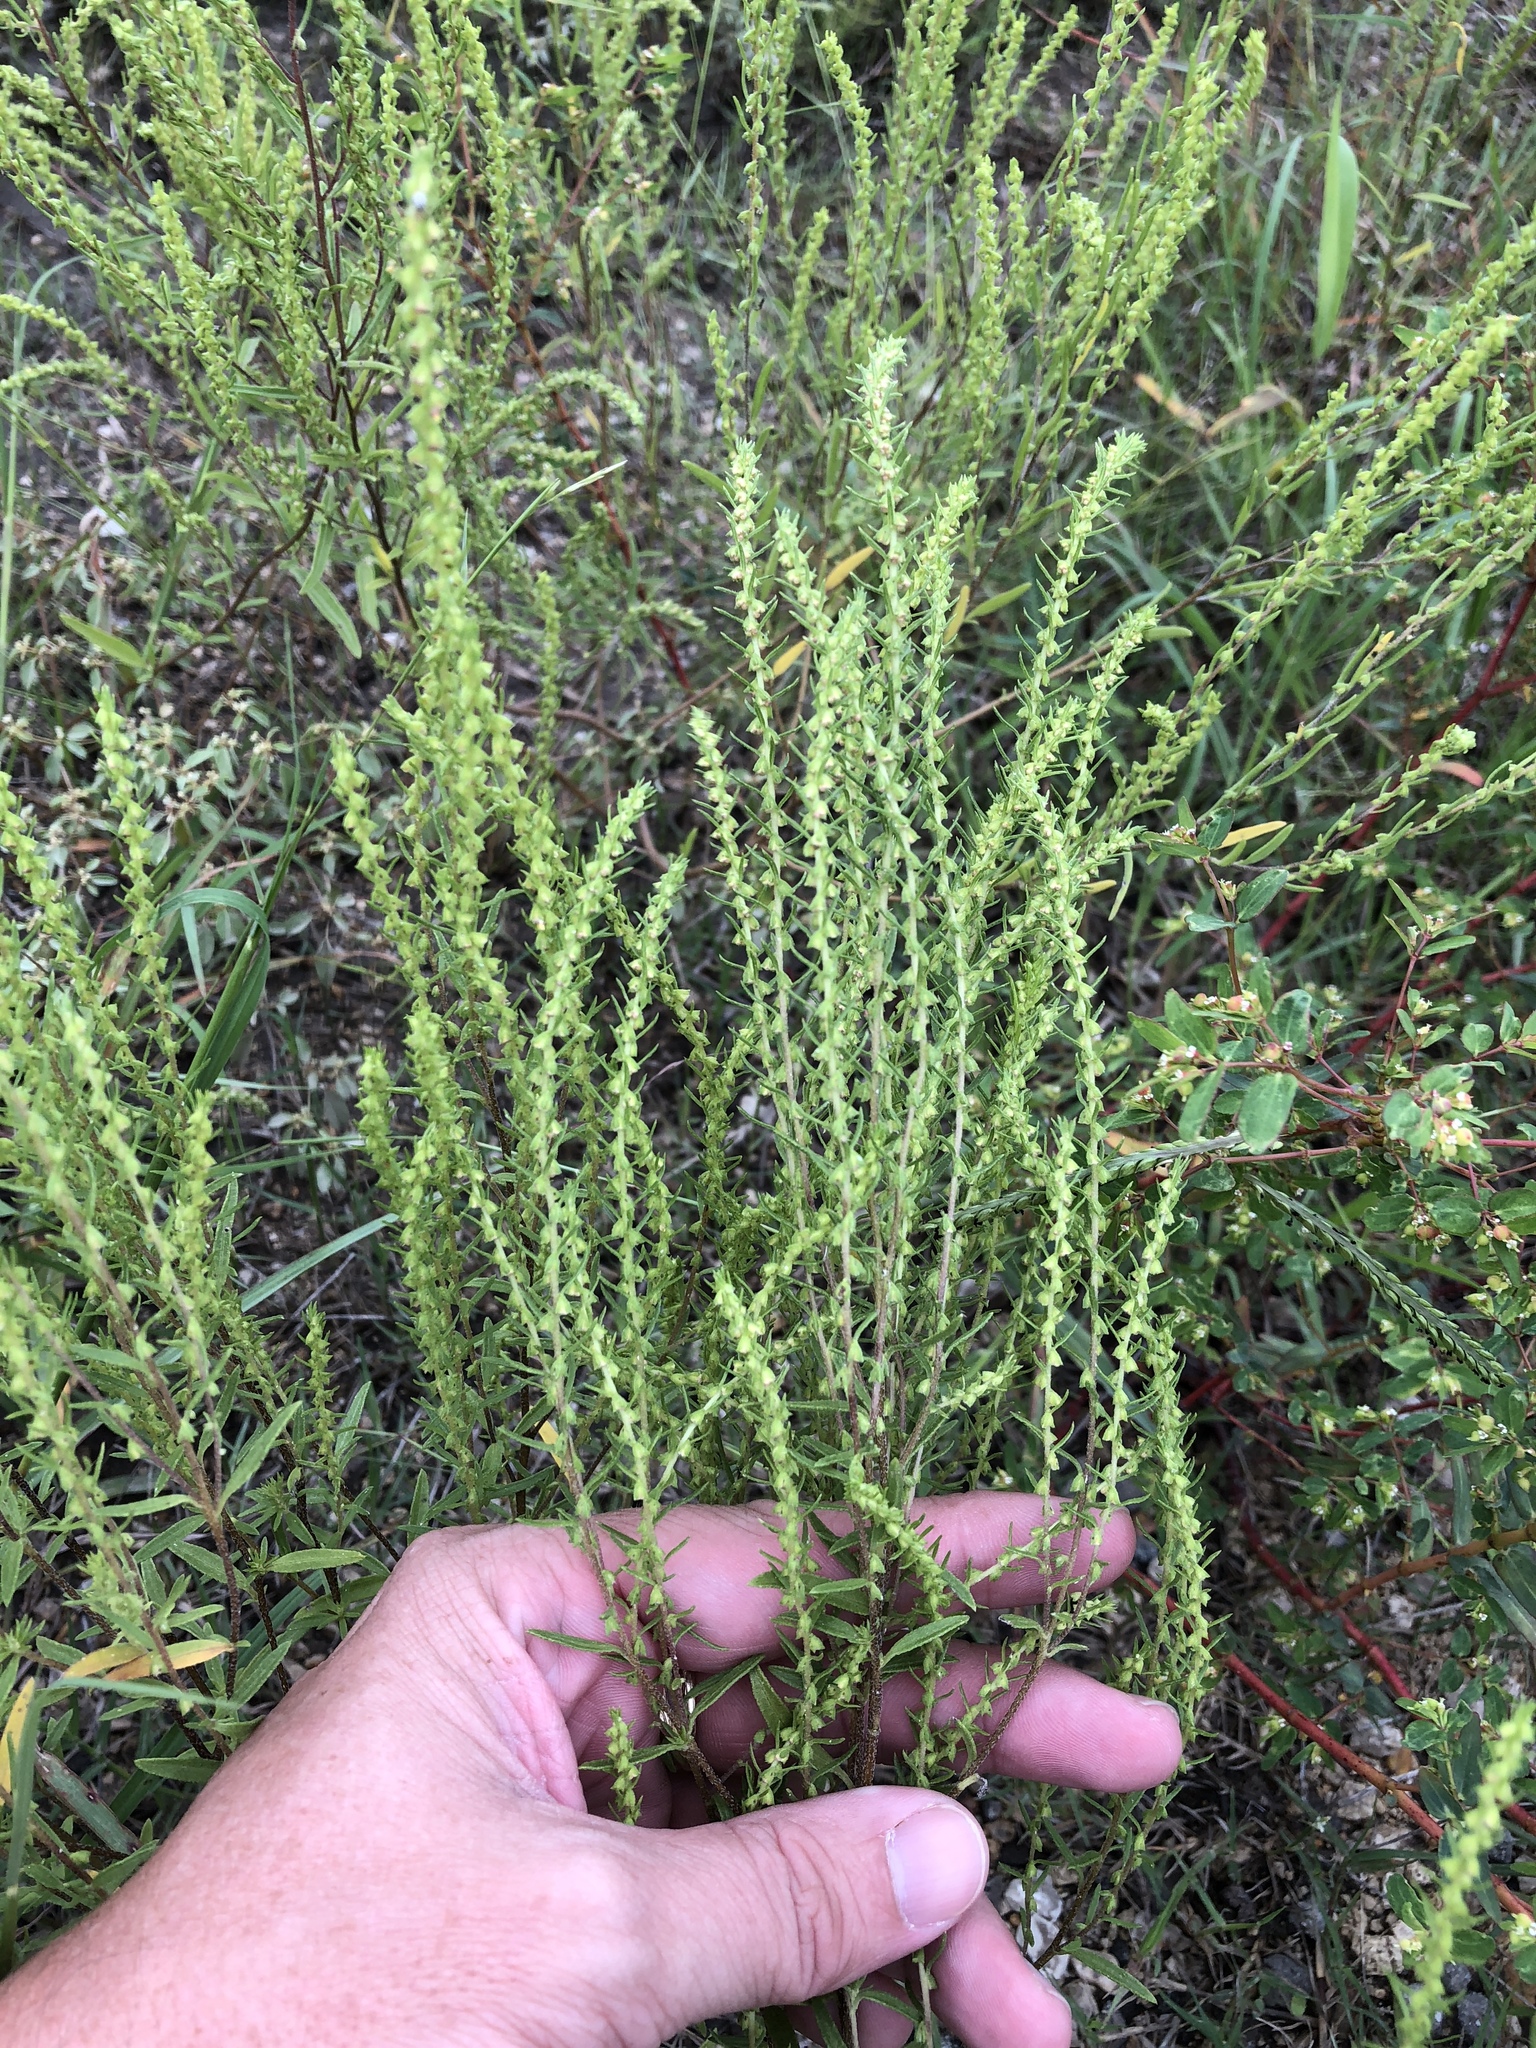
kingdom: Plantae
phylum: Tracheophyta
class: Magnoliopsida
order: Asterales
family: Asteraceae
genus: Iva
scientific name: Iva asperifolia
